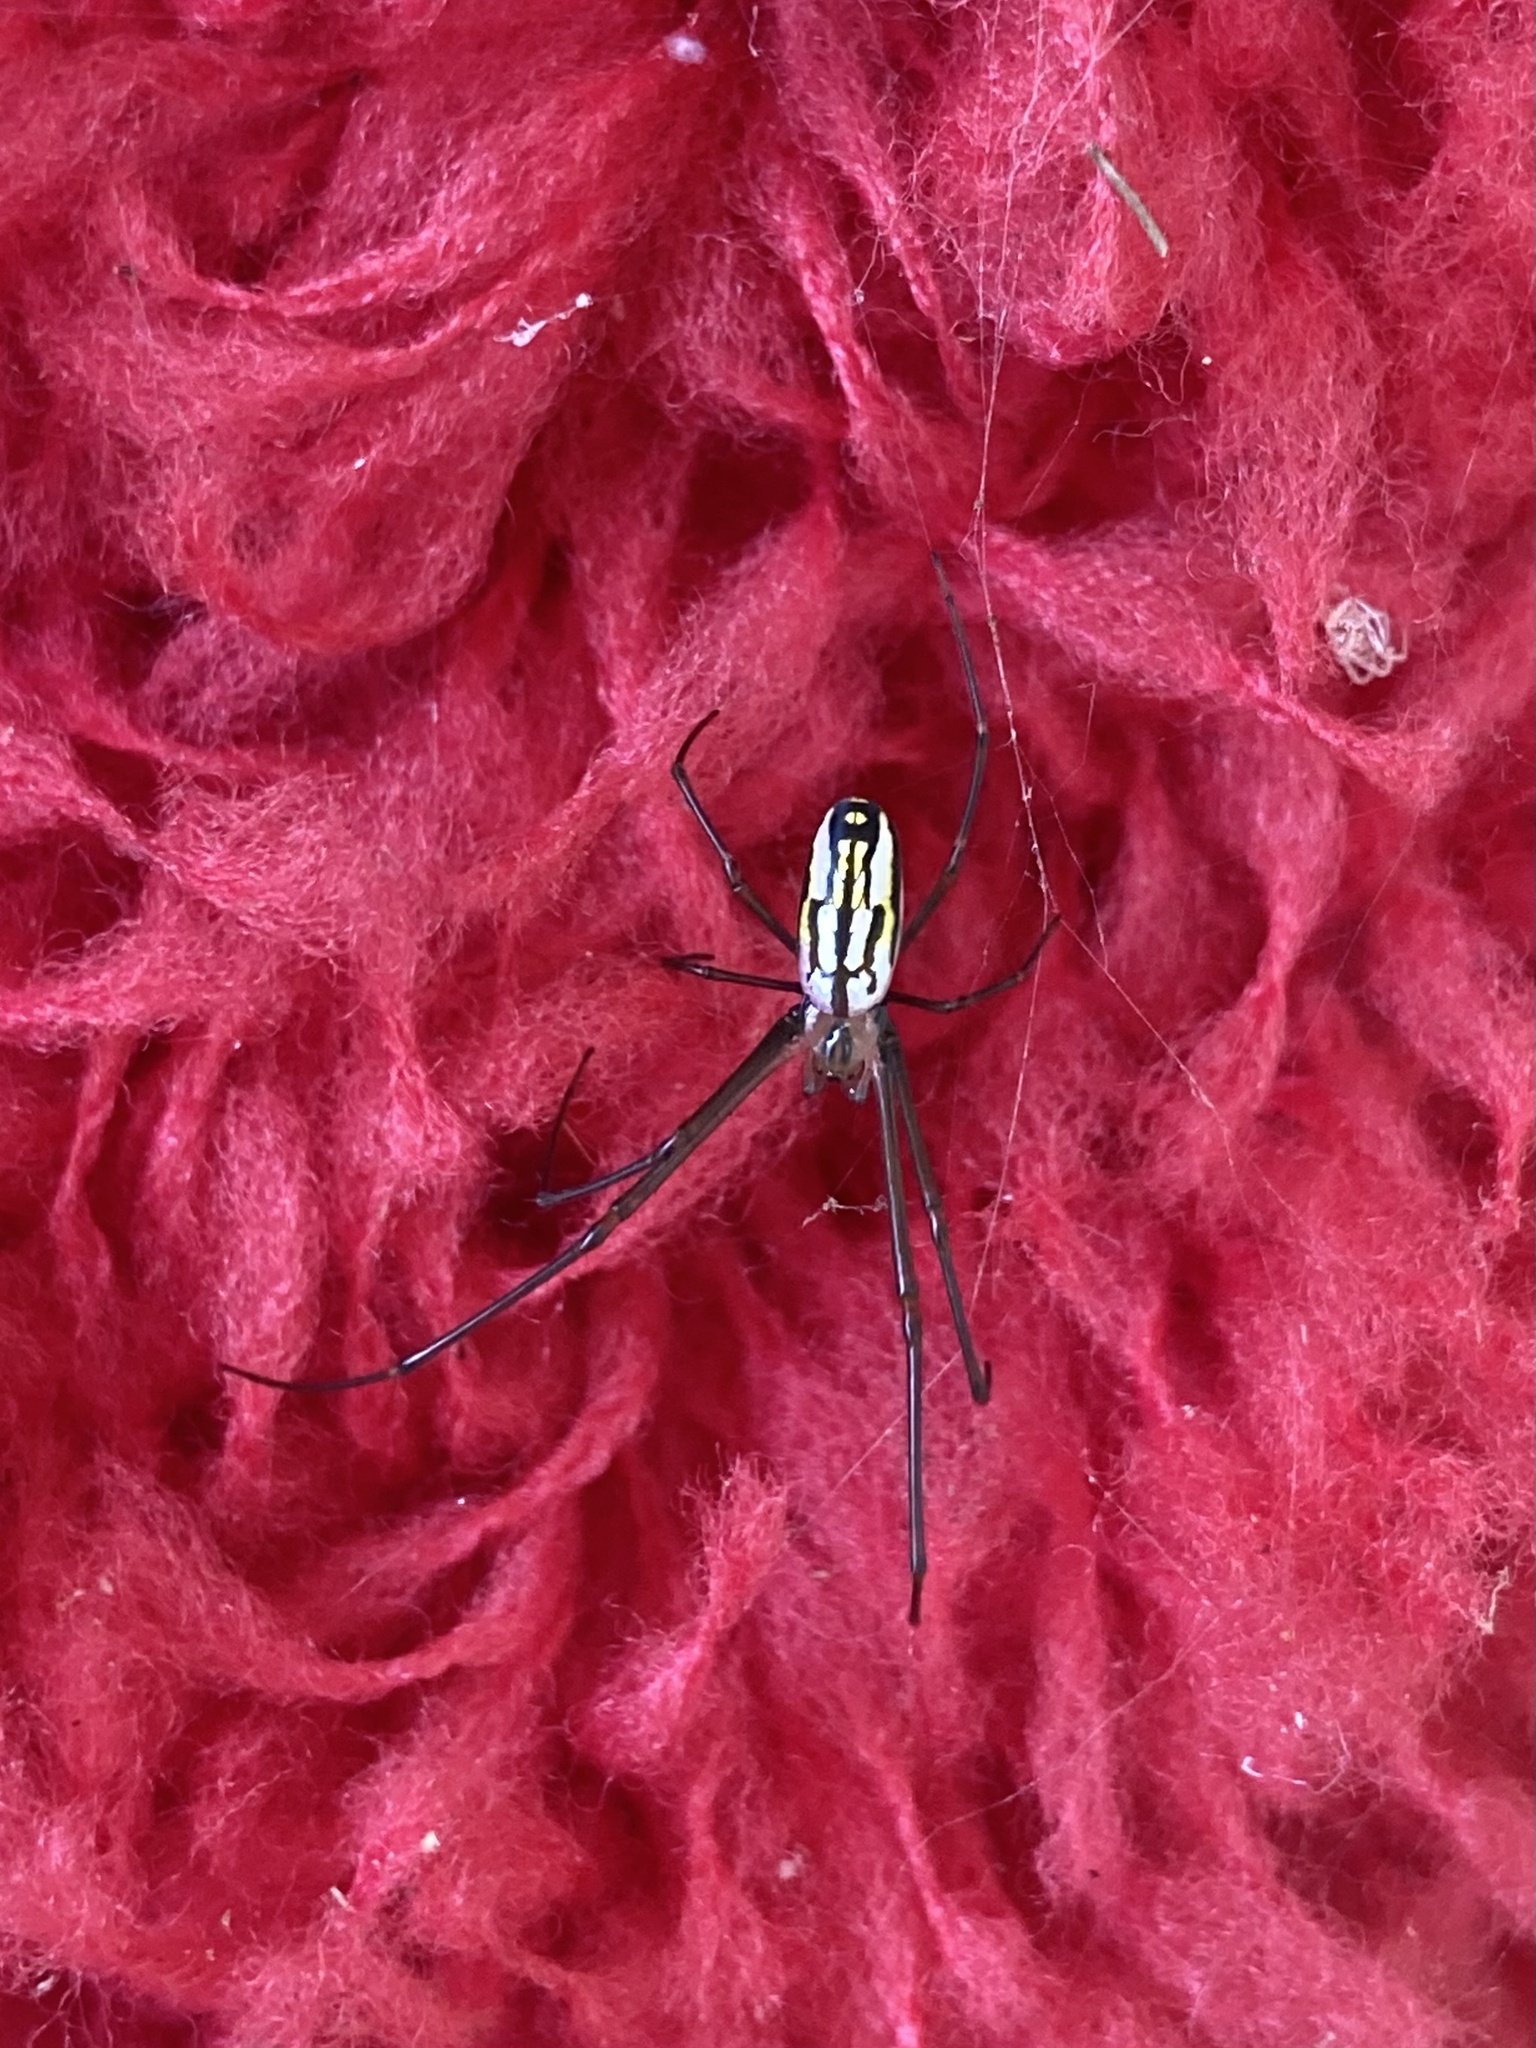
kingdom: Animalia
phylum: Arthropoda
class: Arachnida
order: Araneae
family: Tetragnathidae
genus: Leucauge
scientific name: Leucauge argyra
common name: Longjawed orb weavers
